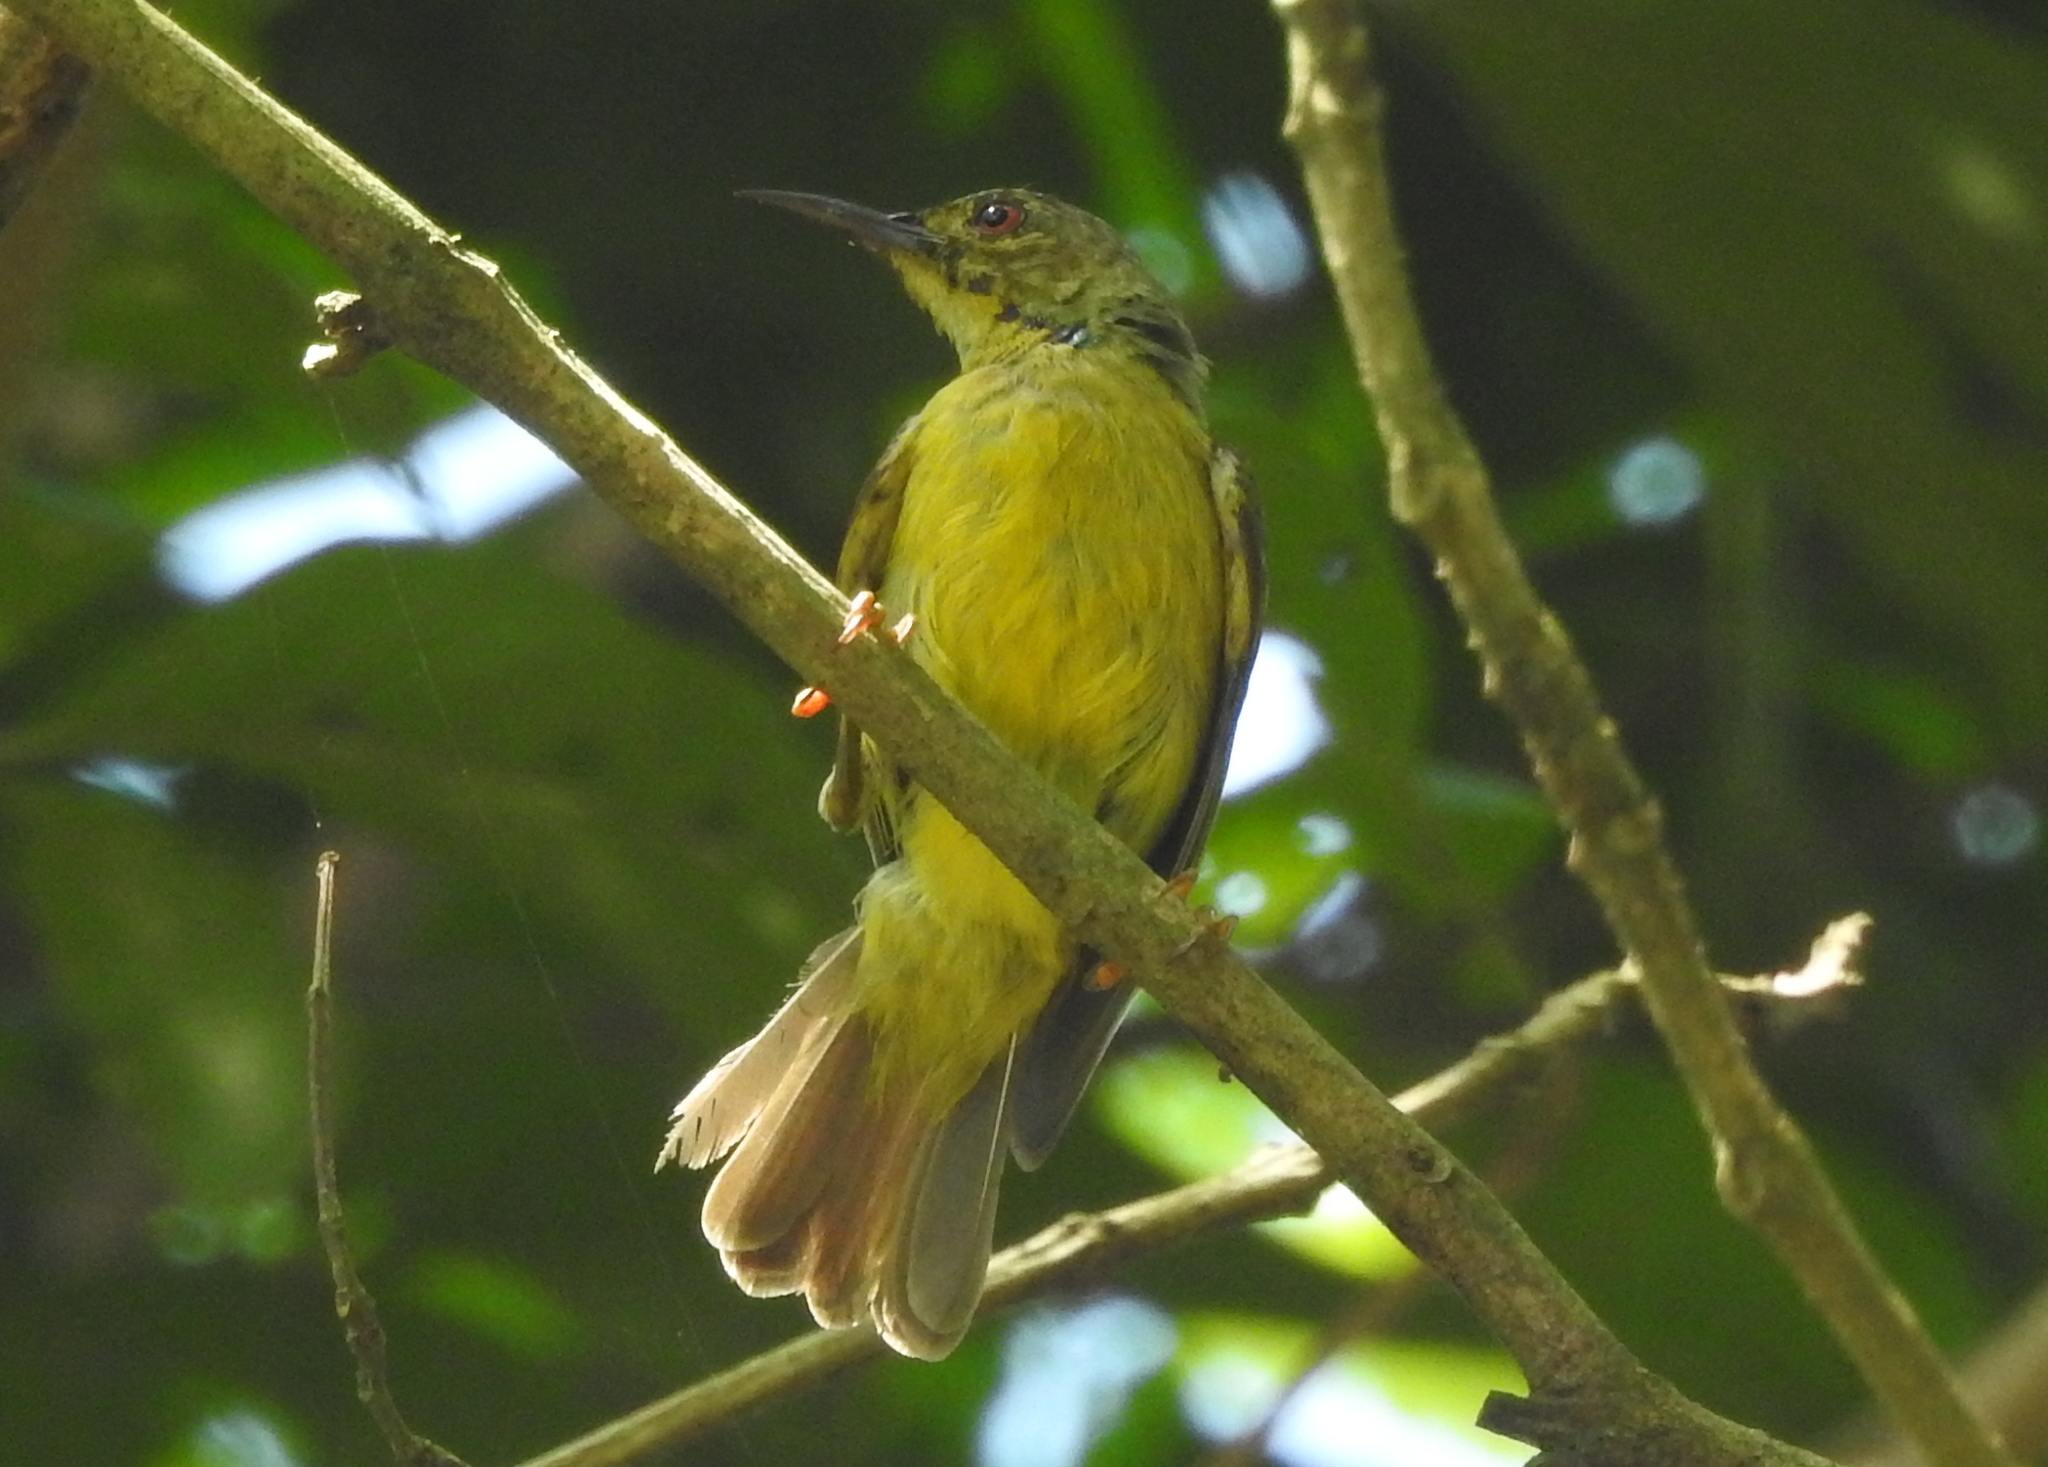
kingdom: Animalia
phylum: Chordata
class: Aves
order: Passeriformes
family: Nectariniidae
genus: Anthreptes
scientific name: Anthreptes malacensis
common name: Brown-throated sunbird
